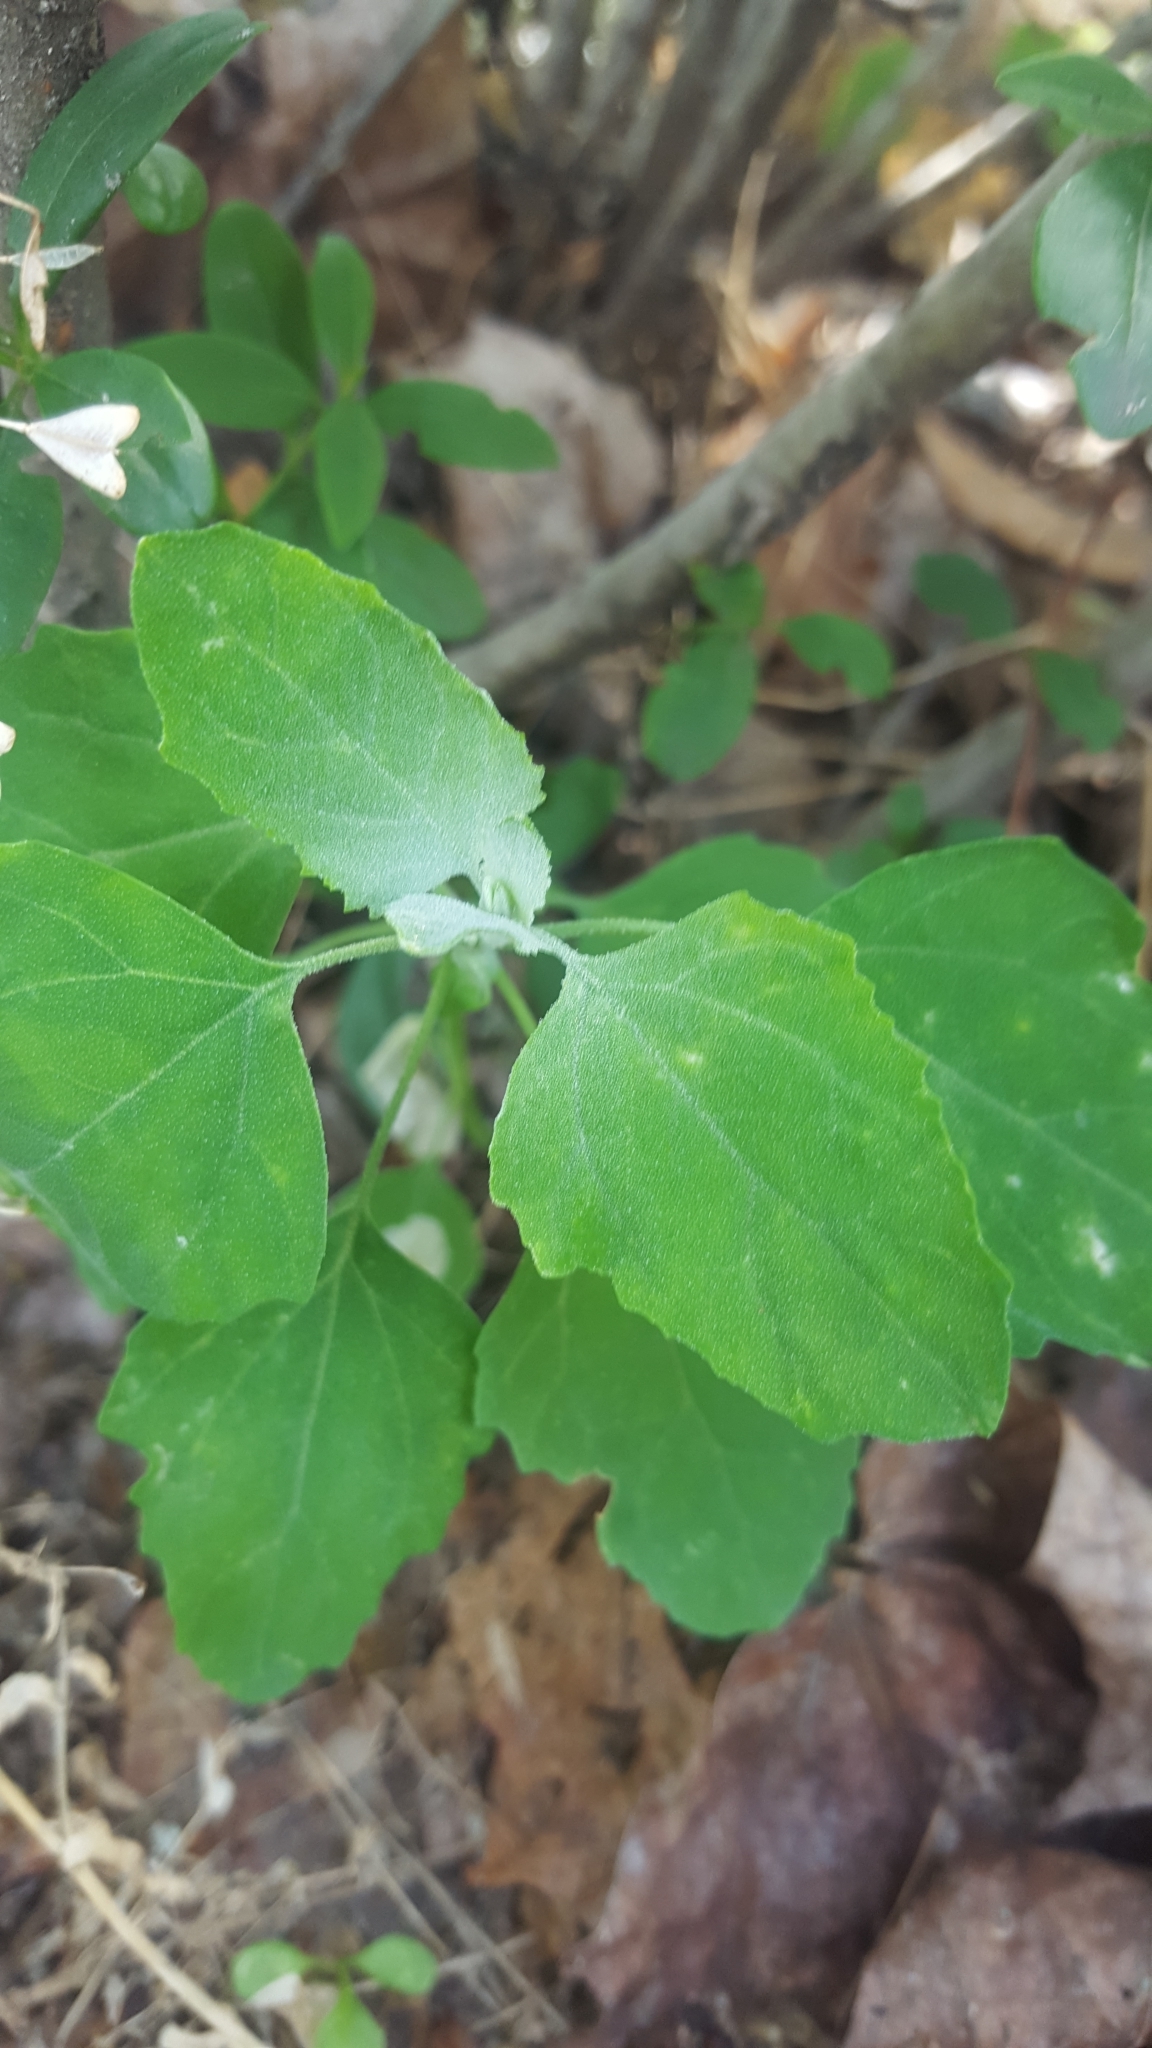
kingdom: Plantae
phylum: Tracheophyta
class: Magnoliopsida
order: Caryophyllales
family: Amaranthaceae
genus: Chenopodium
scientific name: Chenopodium album
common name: Fat-hen
